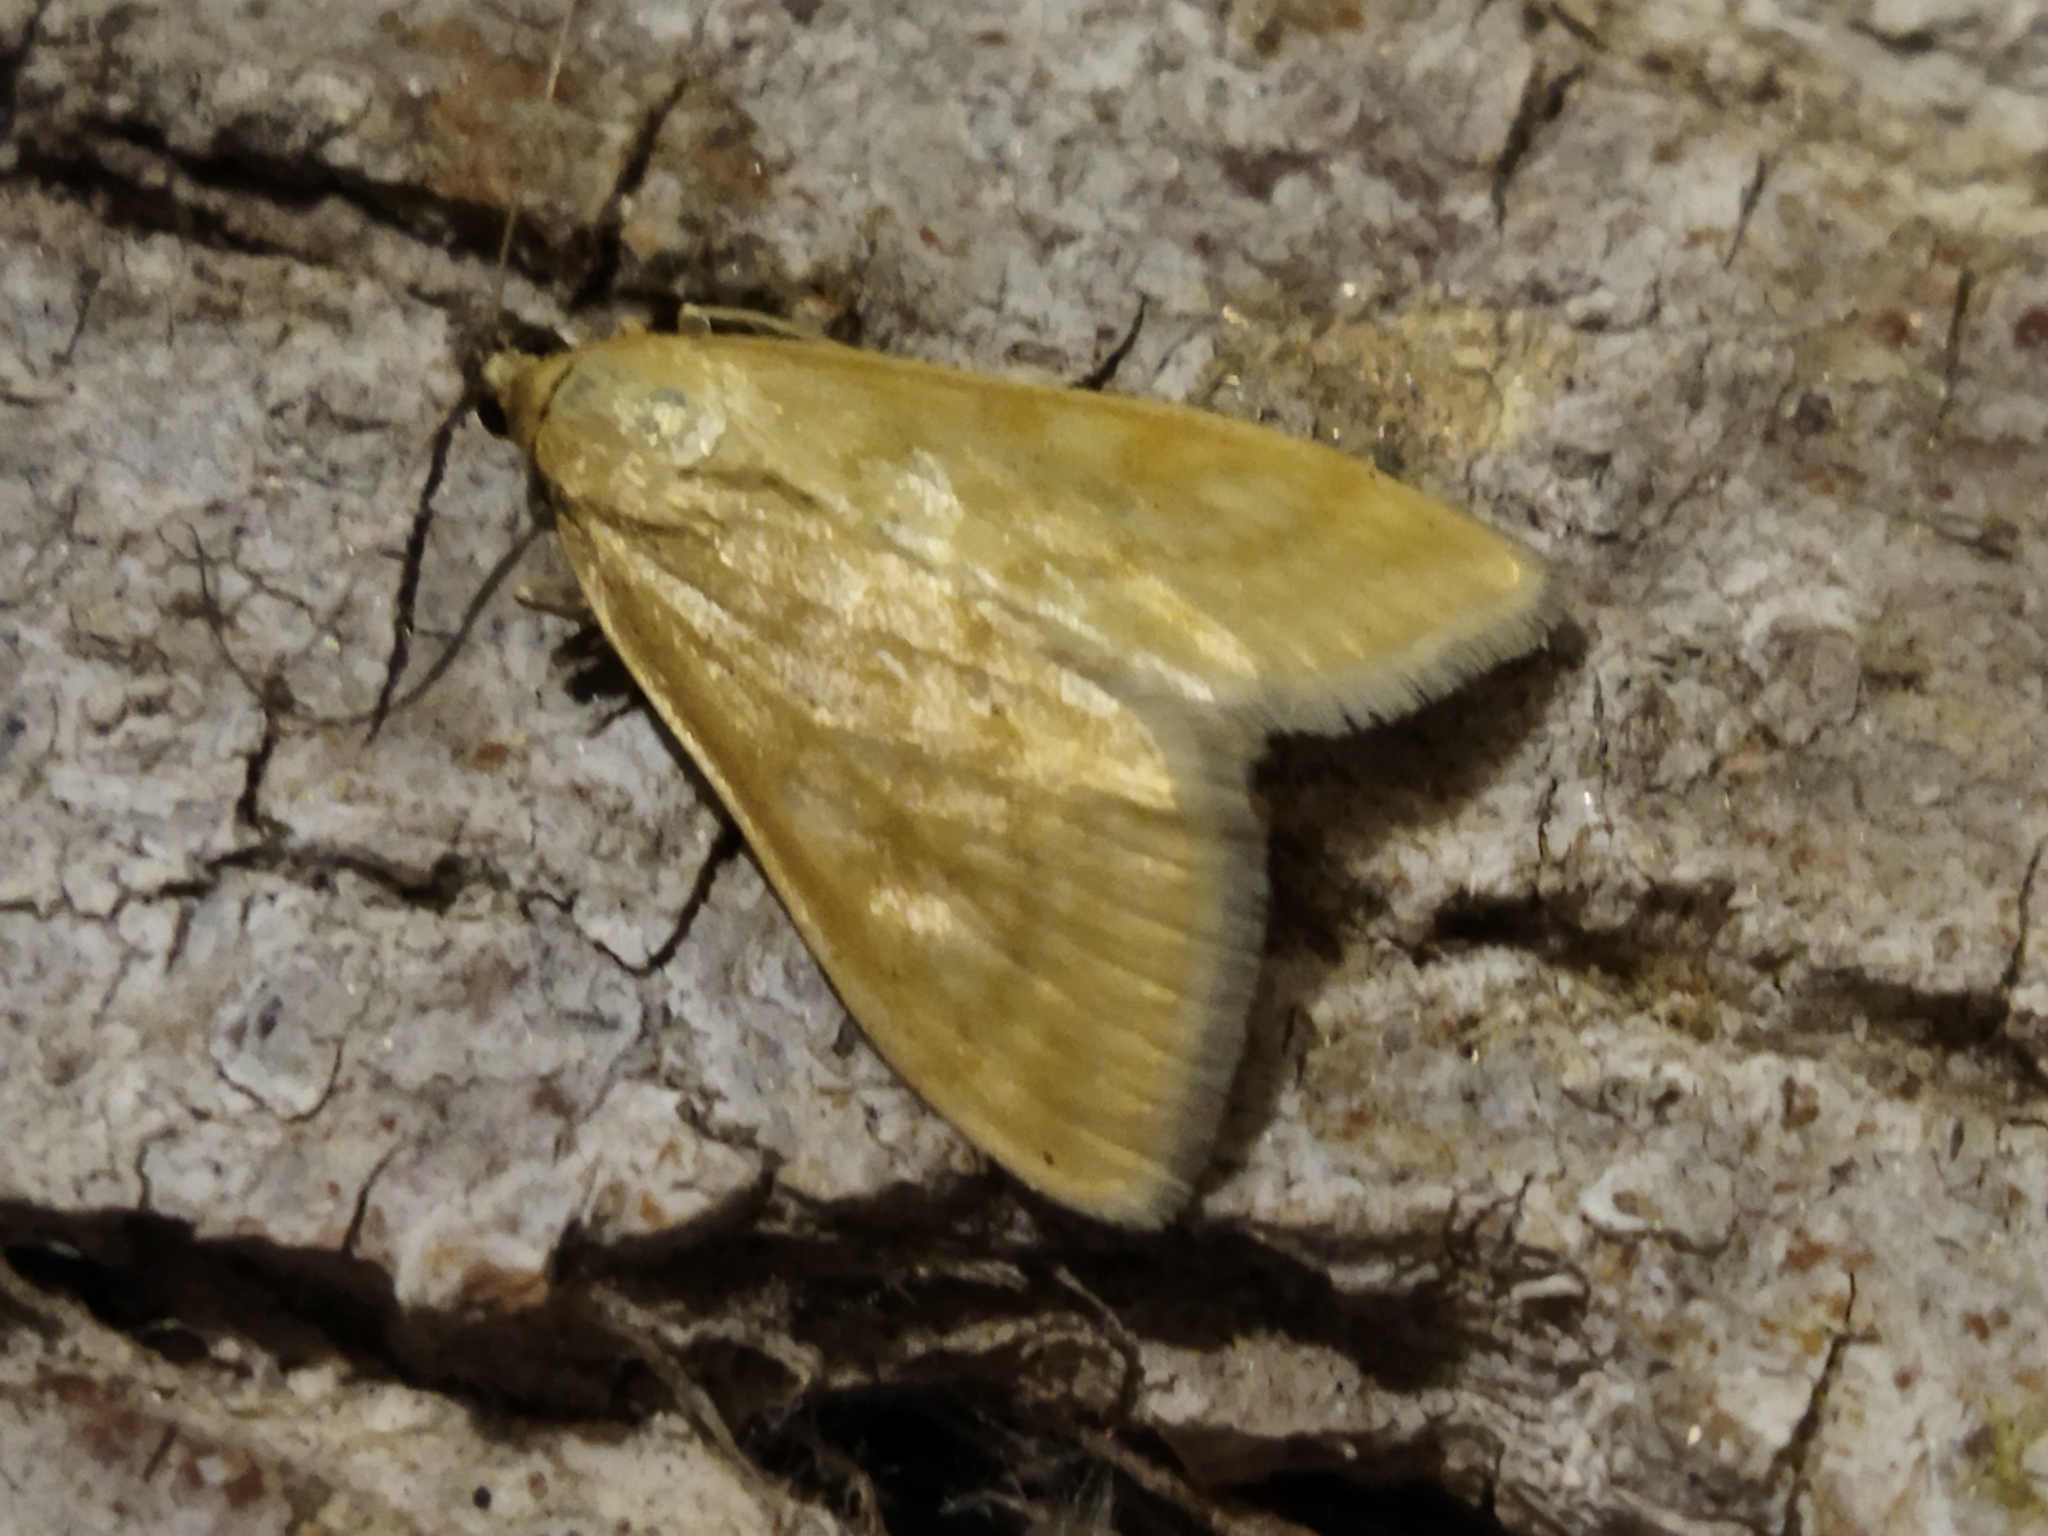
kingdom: Animalia
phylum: Arthropoda
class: Insecta
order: Lepidoptera
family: Crambidae
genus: Sitochroa
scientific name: Sitochroa verticalis
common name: Lesser pearl
